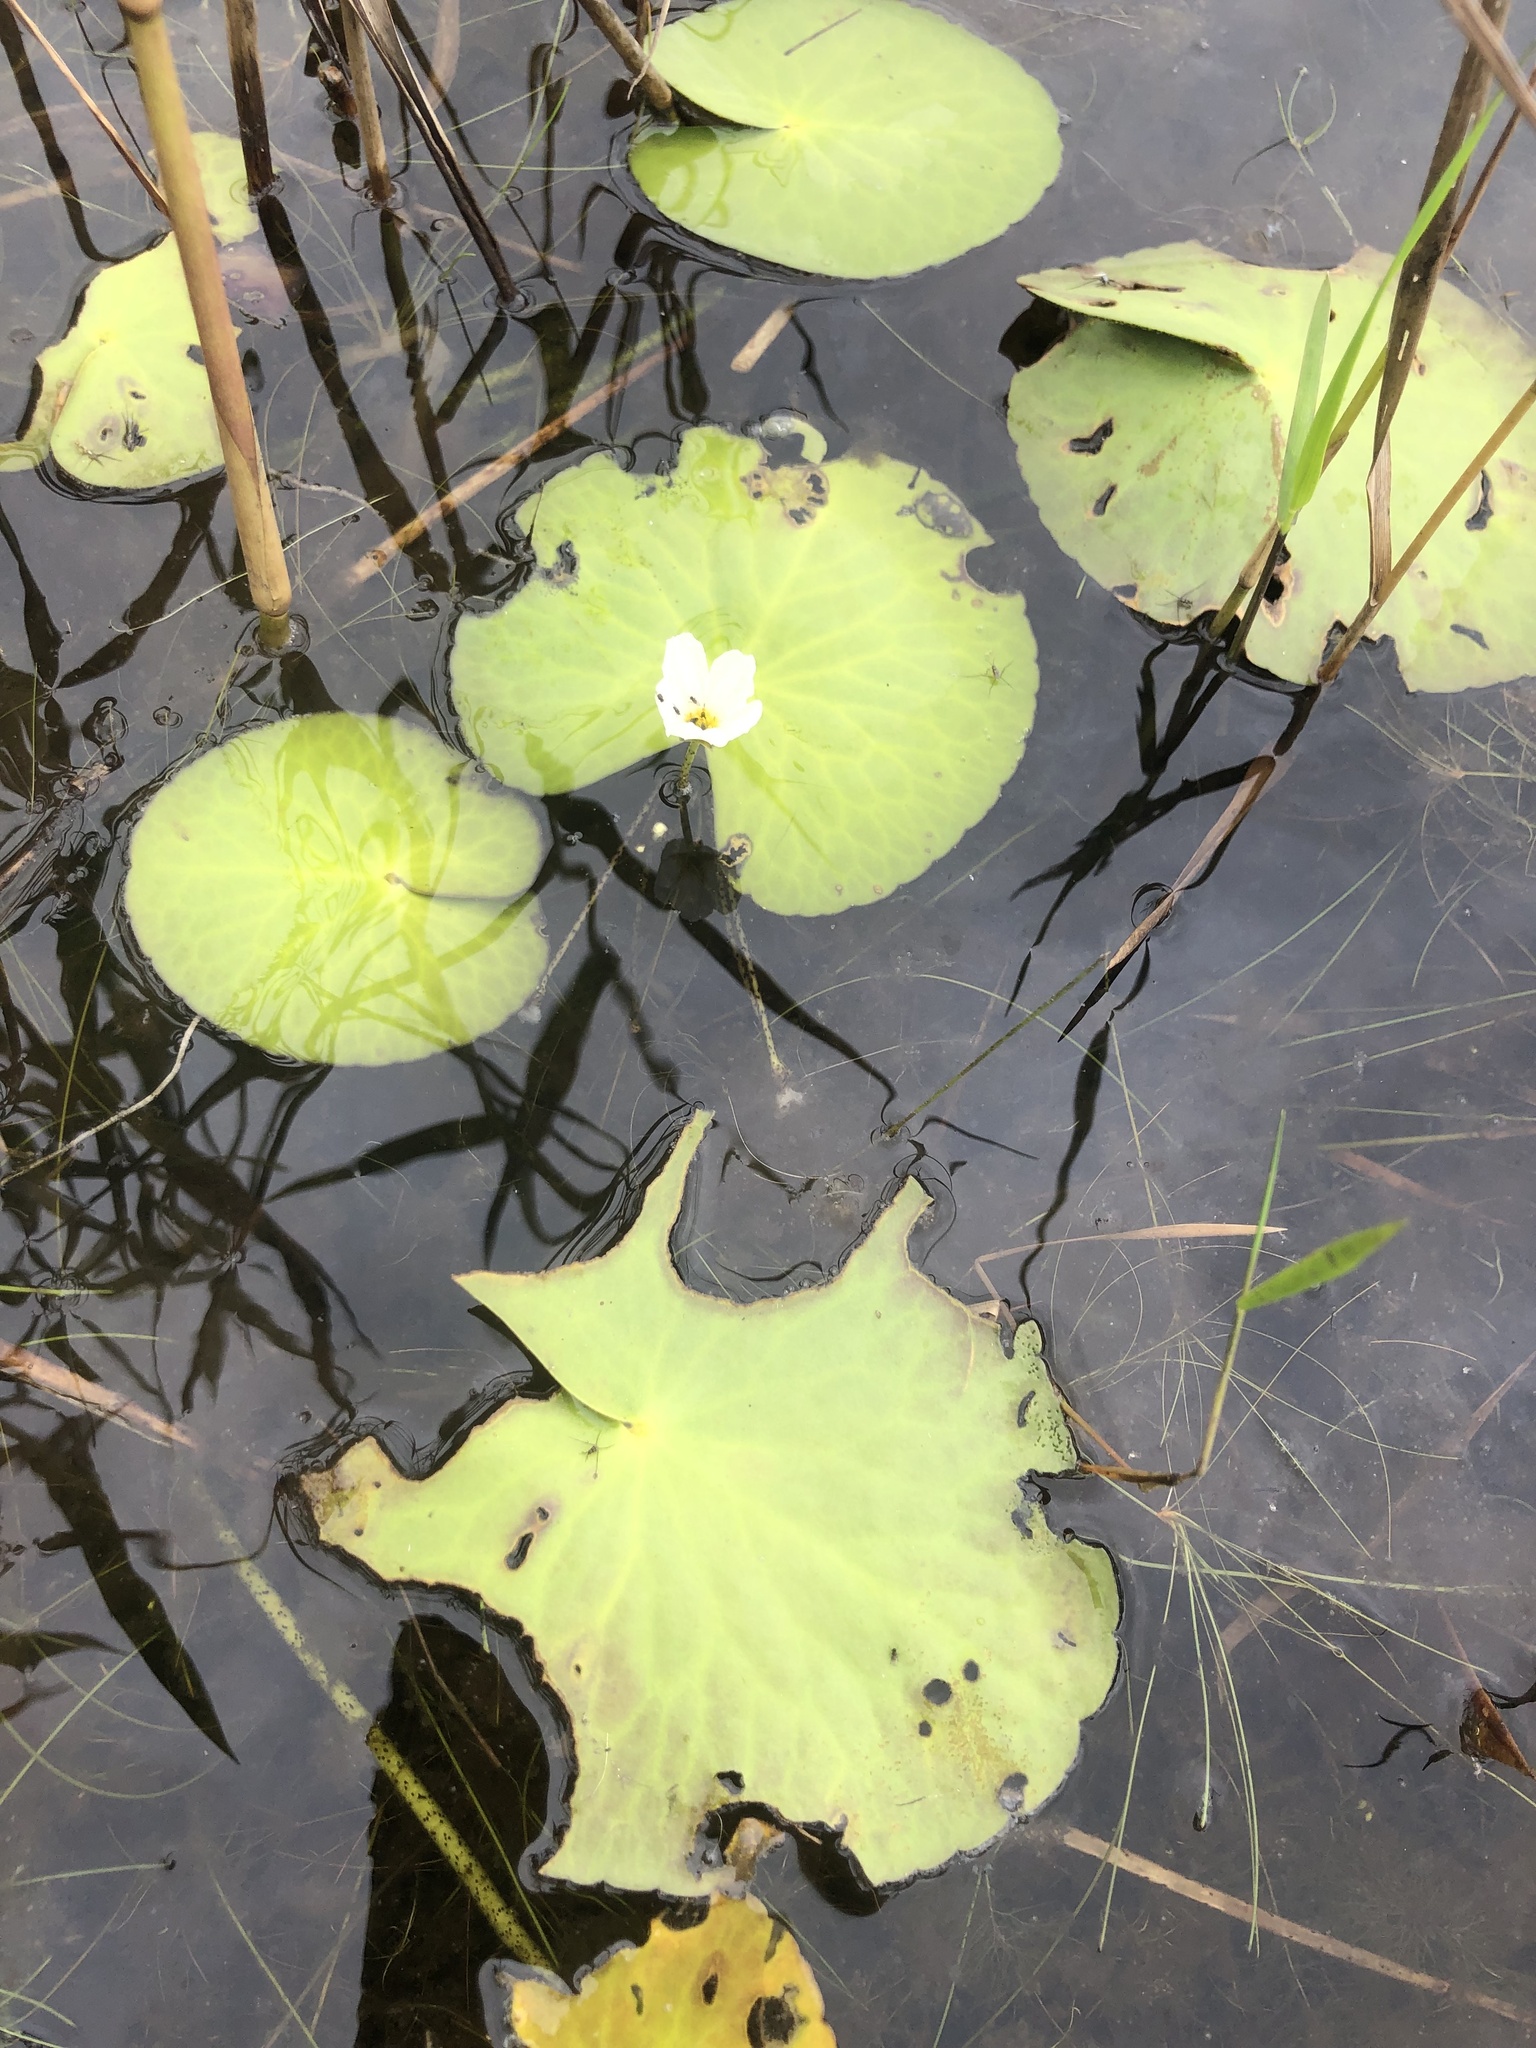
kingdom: Plantae
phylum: Tracheophyta
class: Magnoliopsida
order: Asterales
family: Menyanthaceae
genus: Nymphoides
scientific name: Nymphoides aquatica
